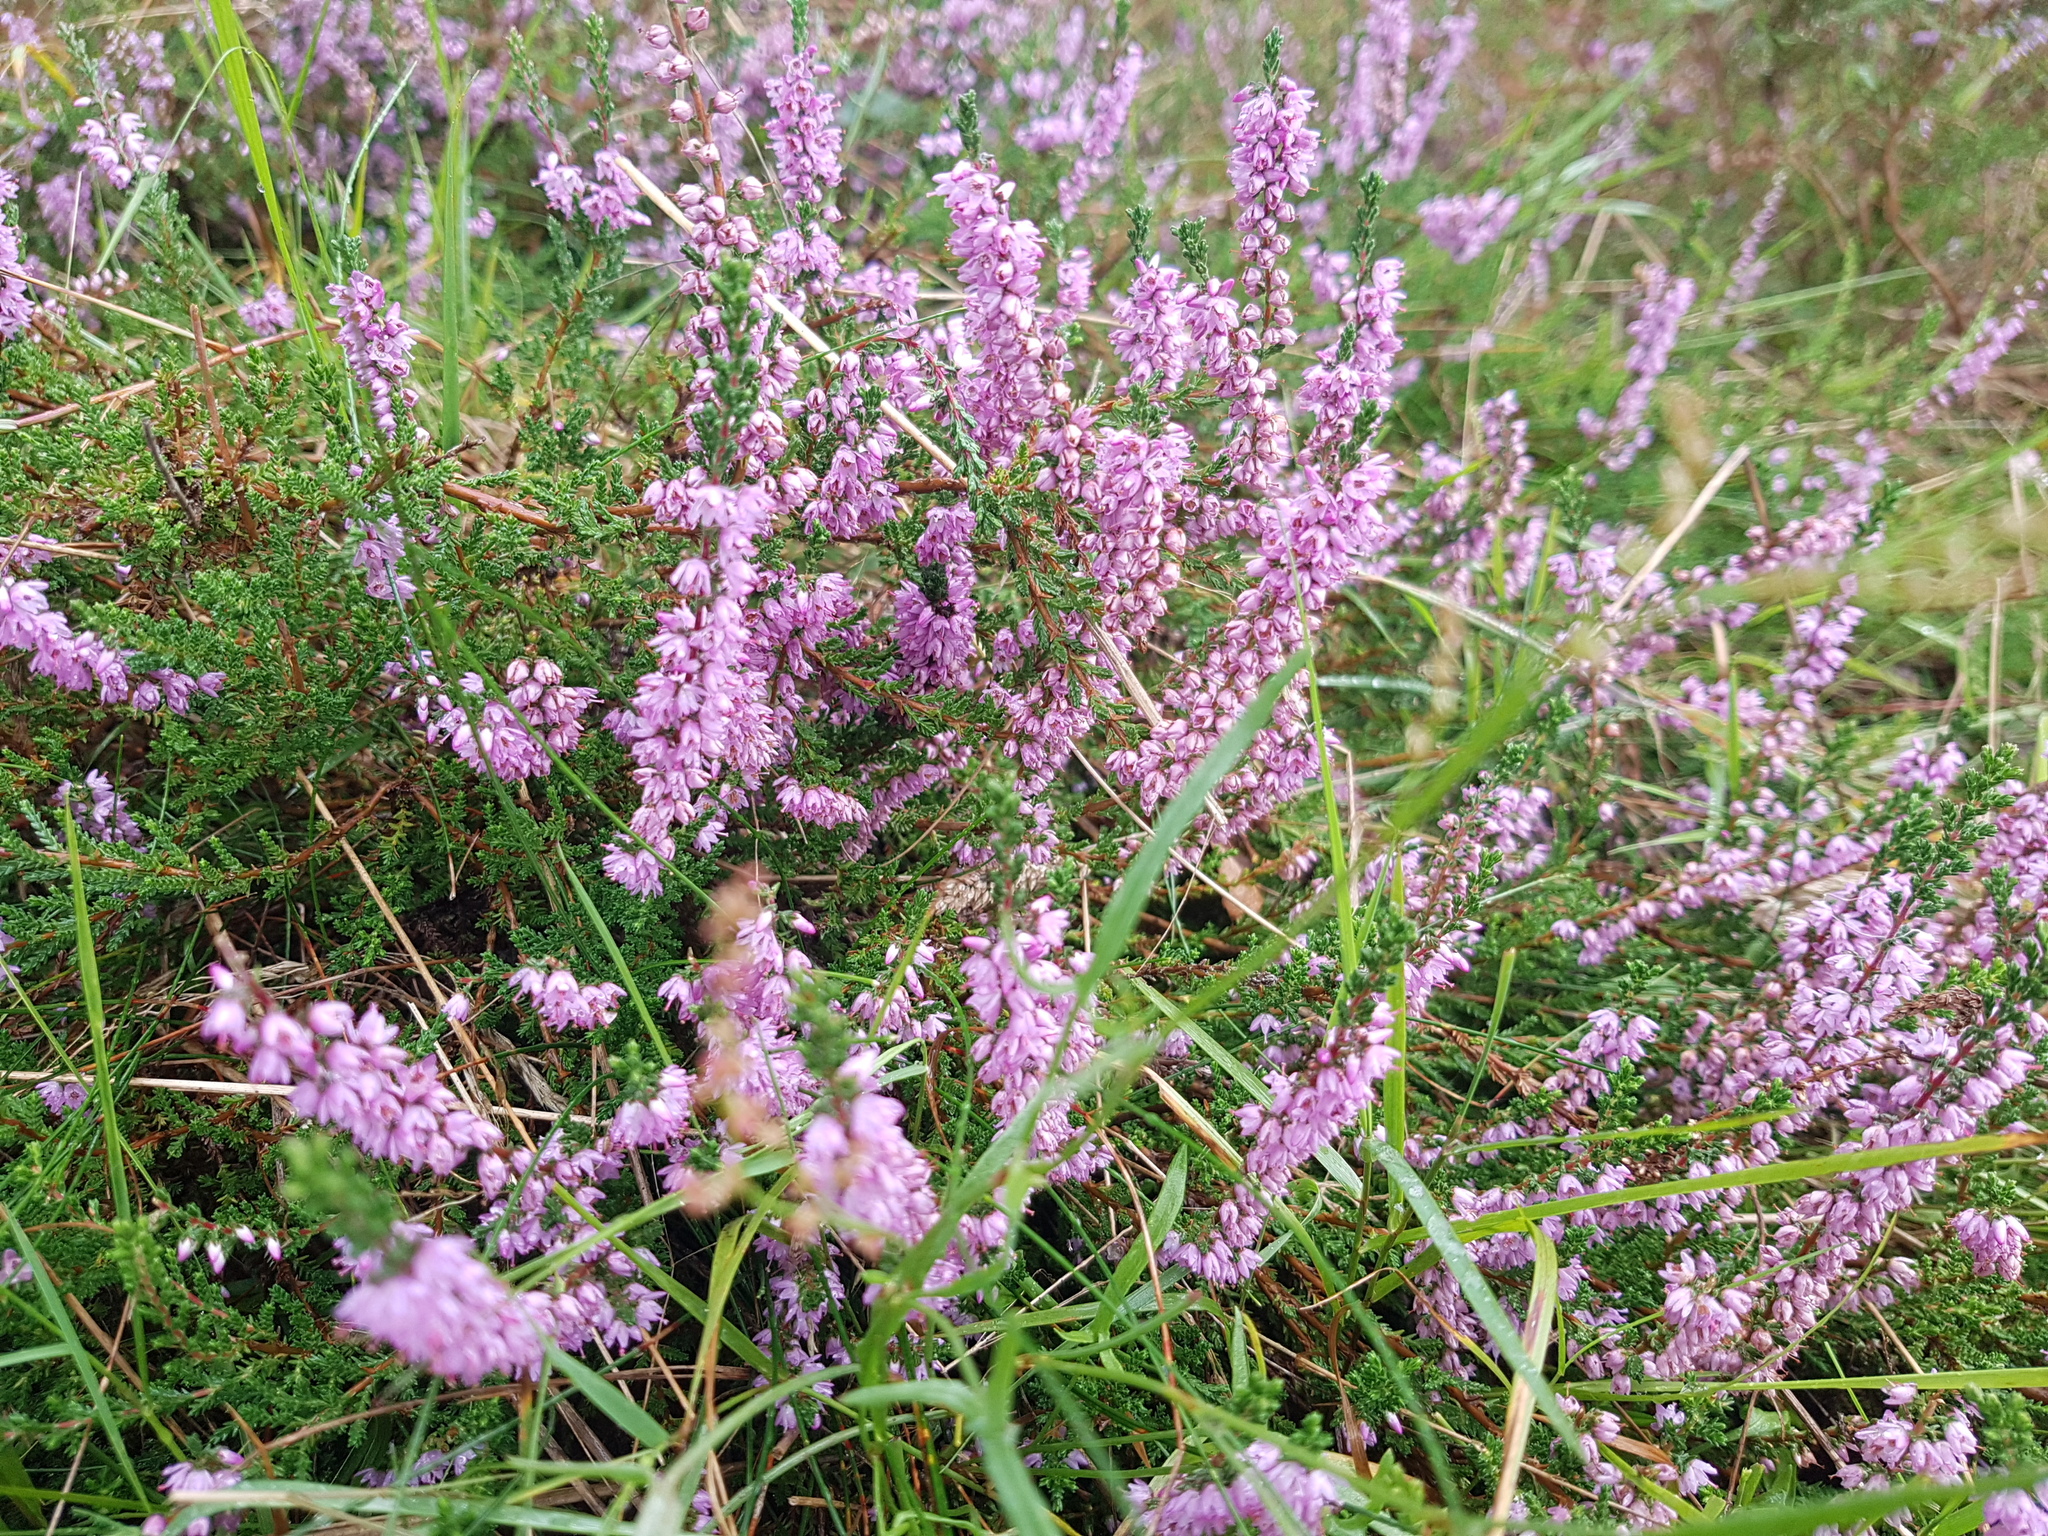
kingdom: Plantae
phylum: Tracheophyta
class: Magnoliopsida
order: Ericales
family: Ericaceae
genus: Calluna
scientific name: Calluna vulgaris
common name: Heather
